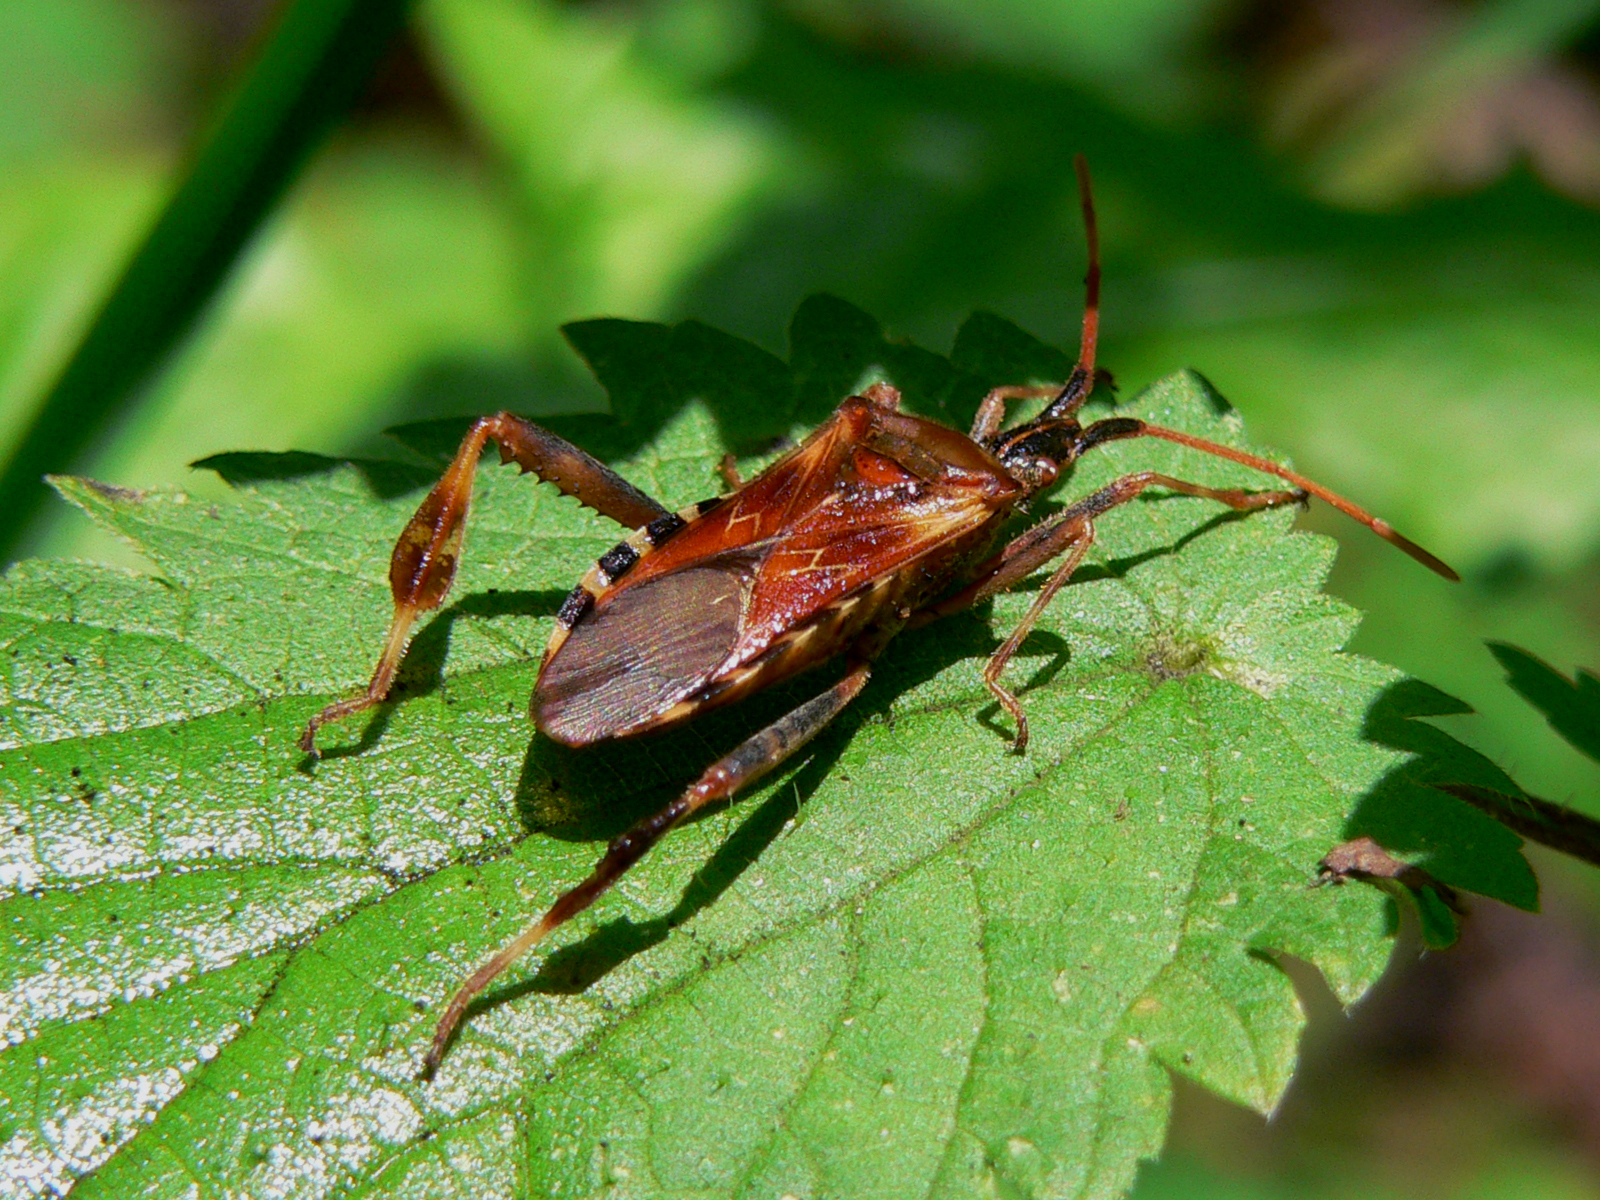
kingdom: Animalia
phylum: Arthropoda
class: Insecta
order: Hemiptera
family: Coreidae
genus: Leptoglossus
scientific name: Leptoglossus occidentalis
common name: Western conifer-seed bug
